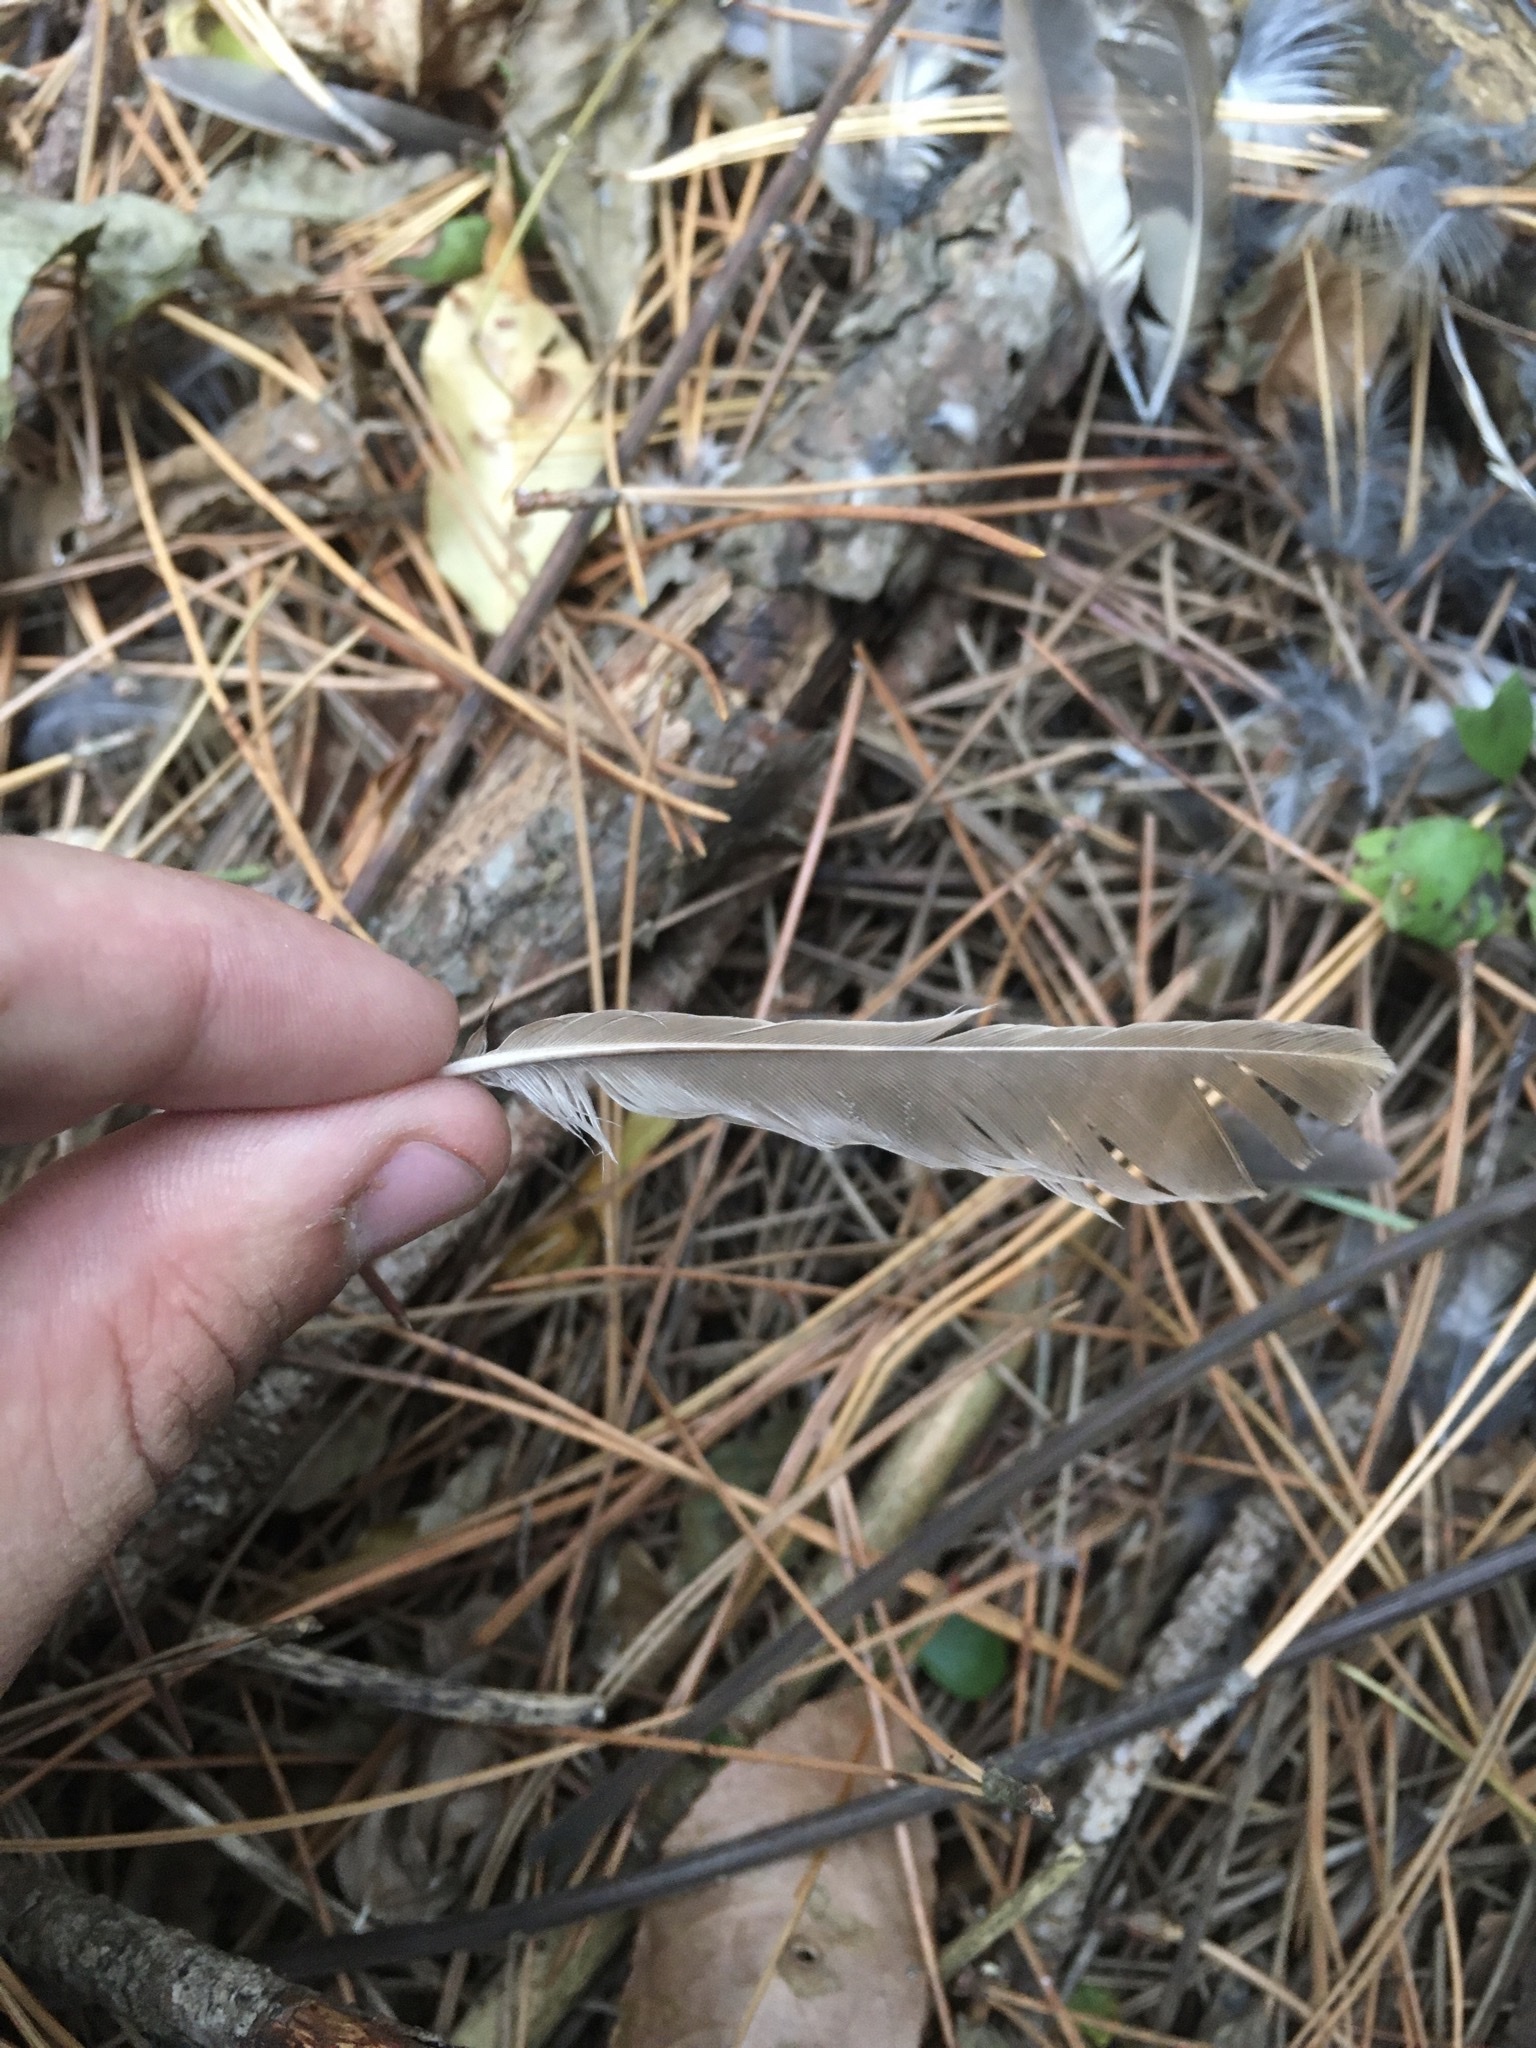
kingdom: Animalia
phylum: Chordata
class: Aves
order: Passeriformes
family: Turdidae
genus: Catharus
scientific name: Catharus guttatus
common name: Hermit thrush
